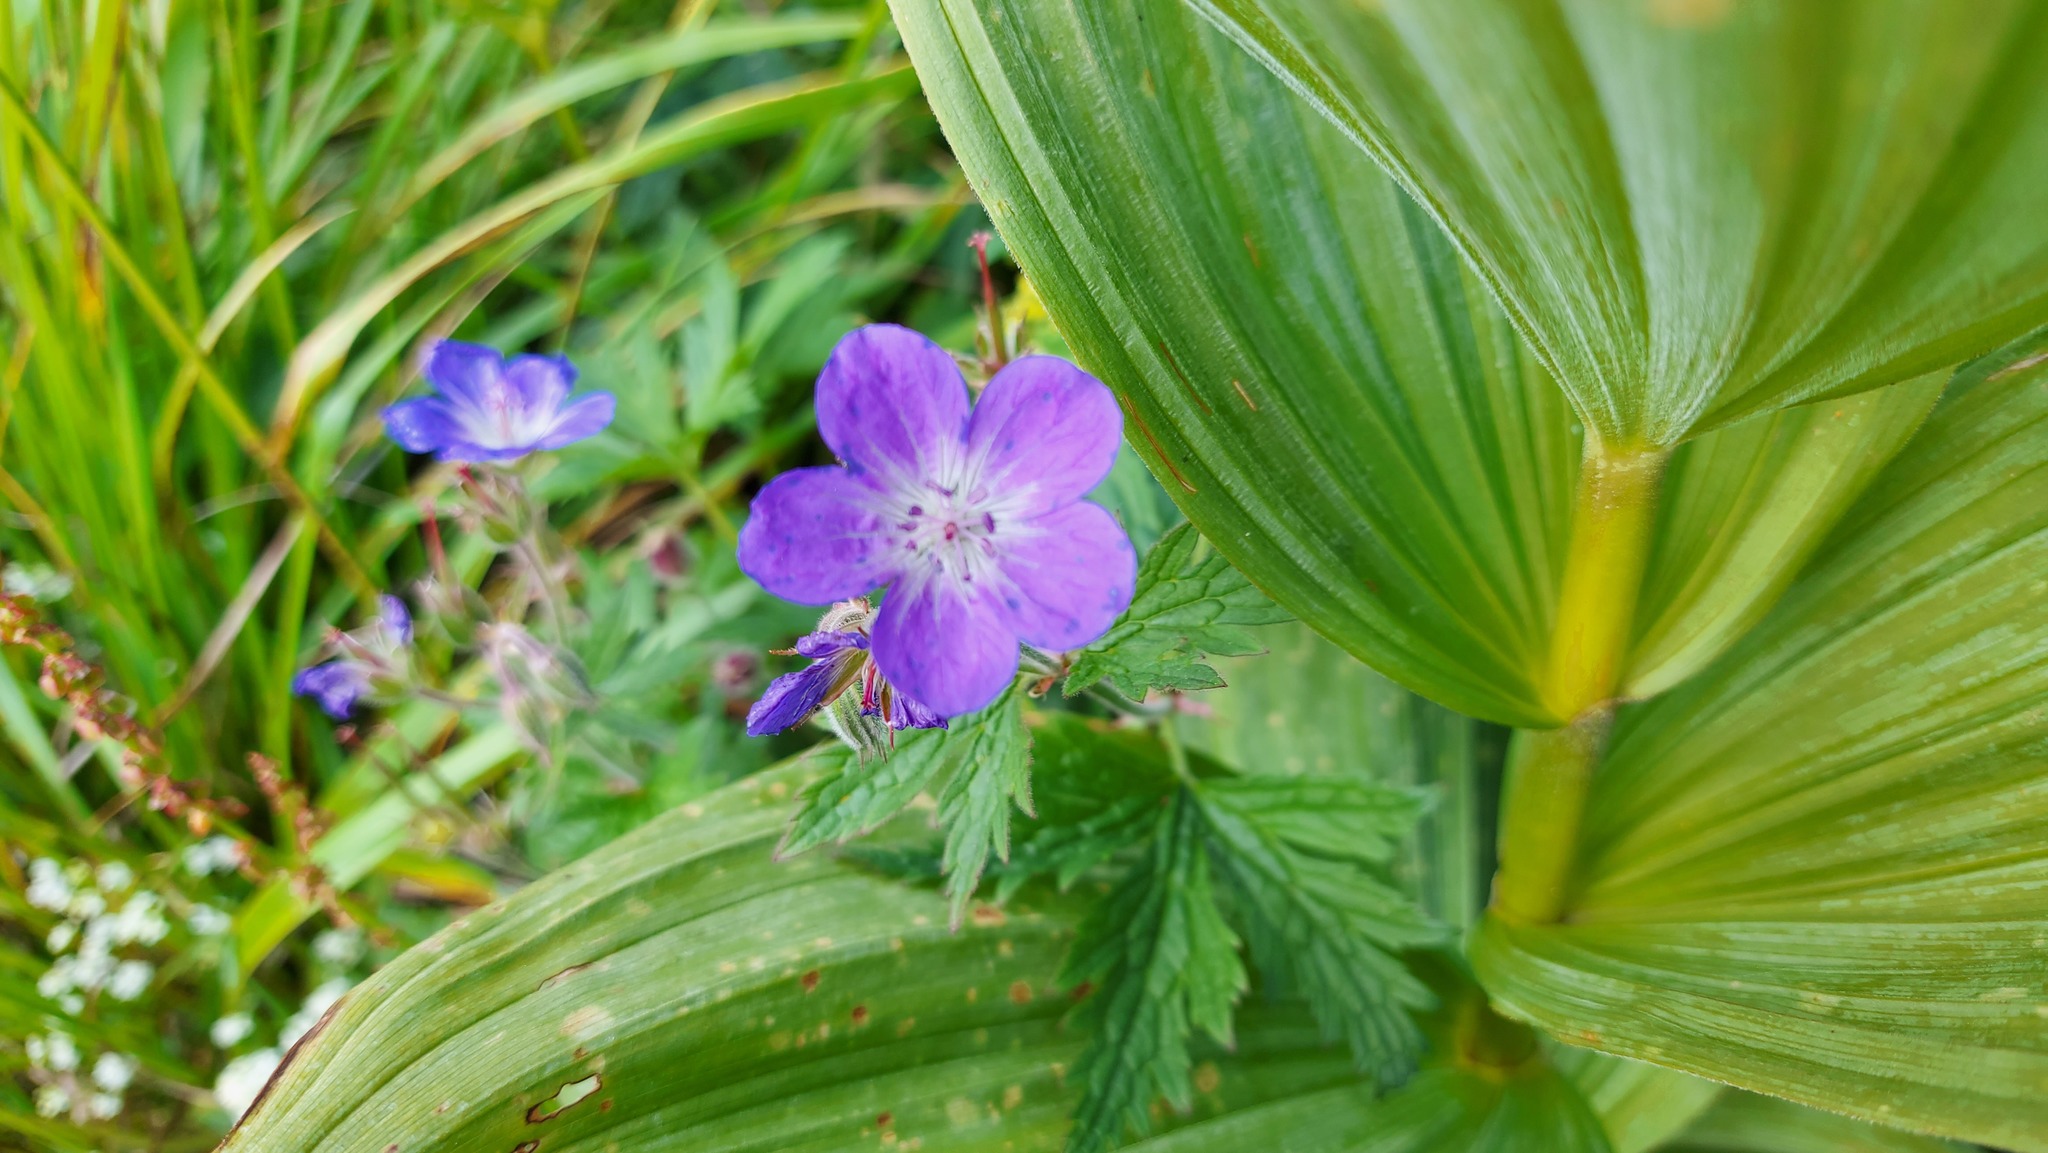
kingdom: Plantae
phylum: Tracheophyta
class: Magnoliopsida
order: Geraniales
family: Geraniaceae
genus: Geranium
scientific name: Geranium sylvaticum
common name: Wood crane's-bill
